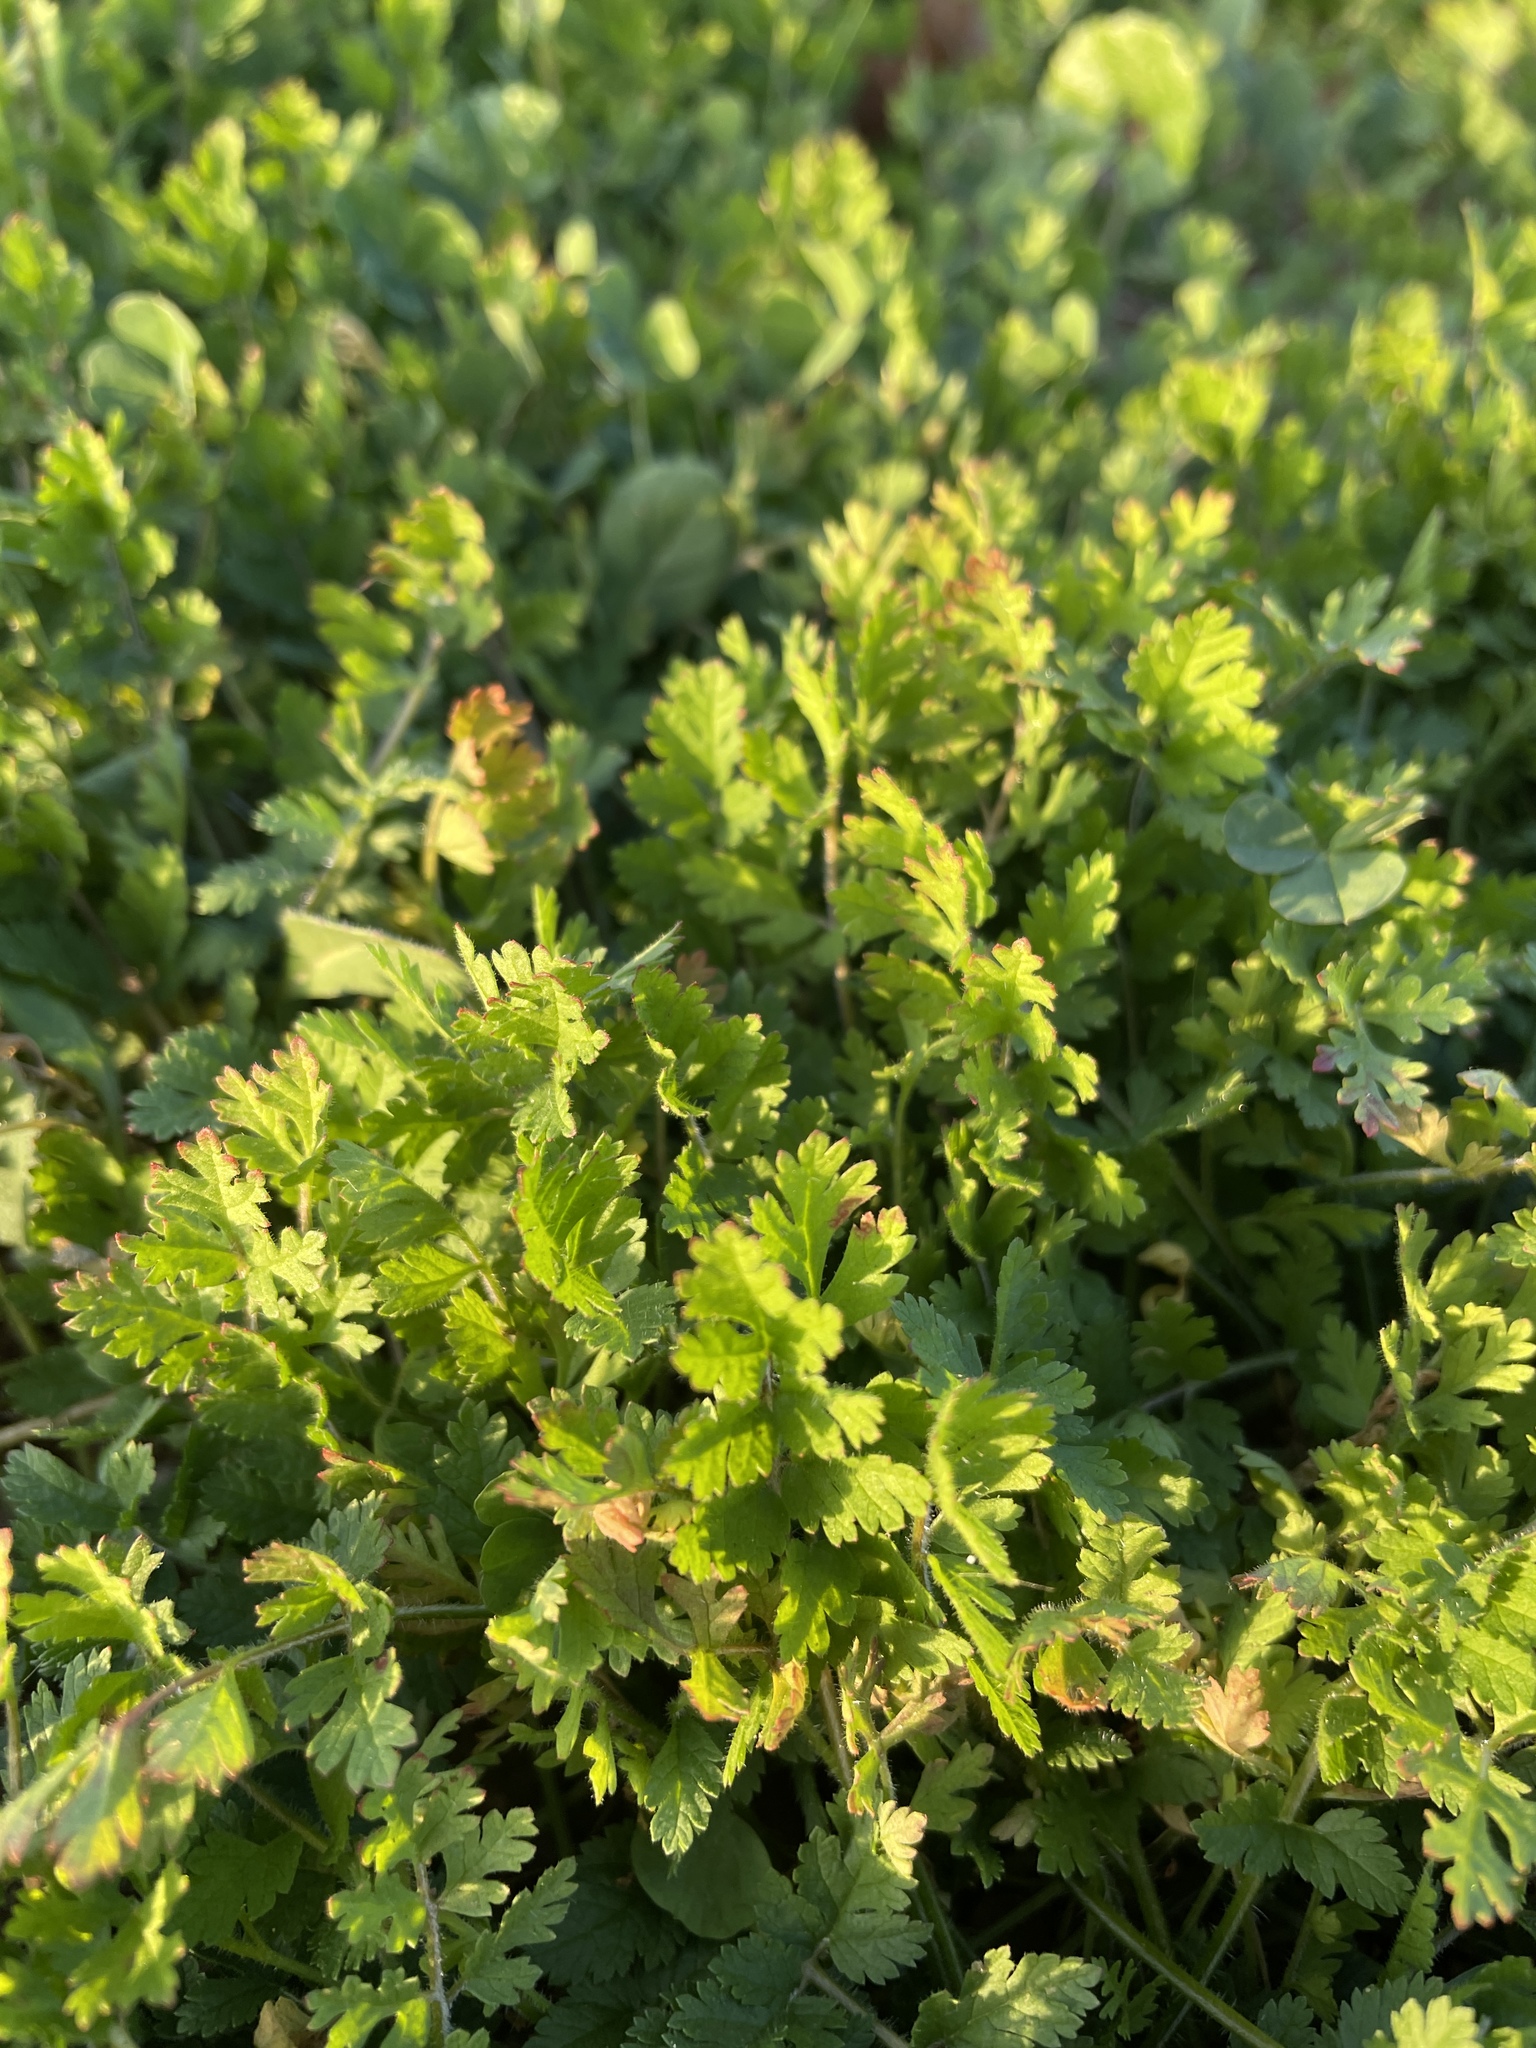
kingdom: Plantae
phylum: Tracheophyta
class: Magnoliopsida
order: Geraniales
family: Geraniaceae
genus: Erodium
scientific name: Erodium moschatum
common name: Musk stork's-bill
